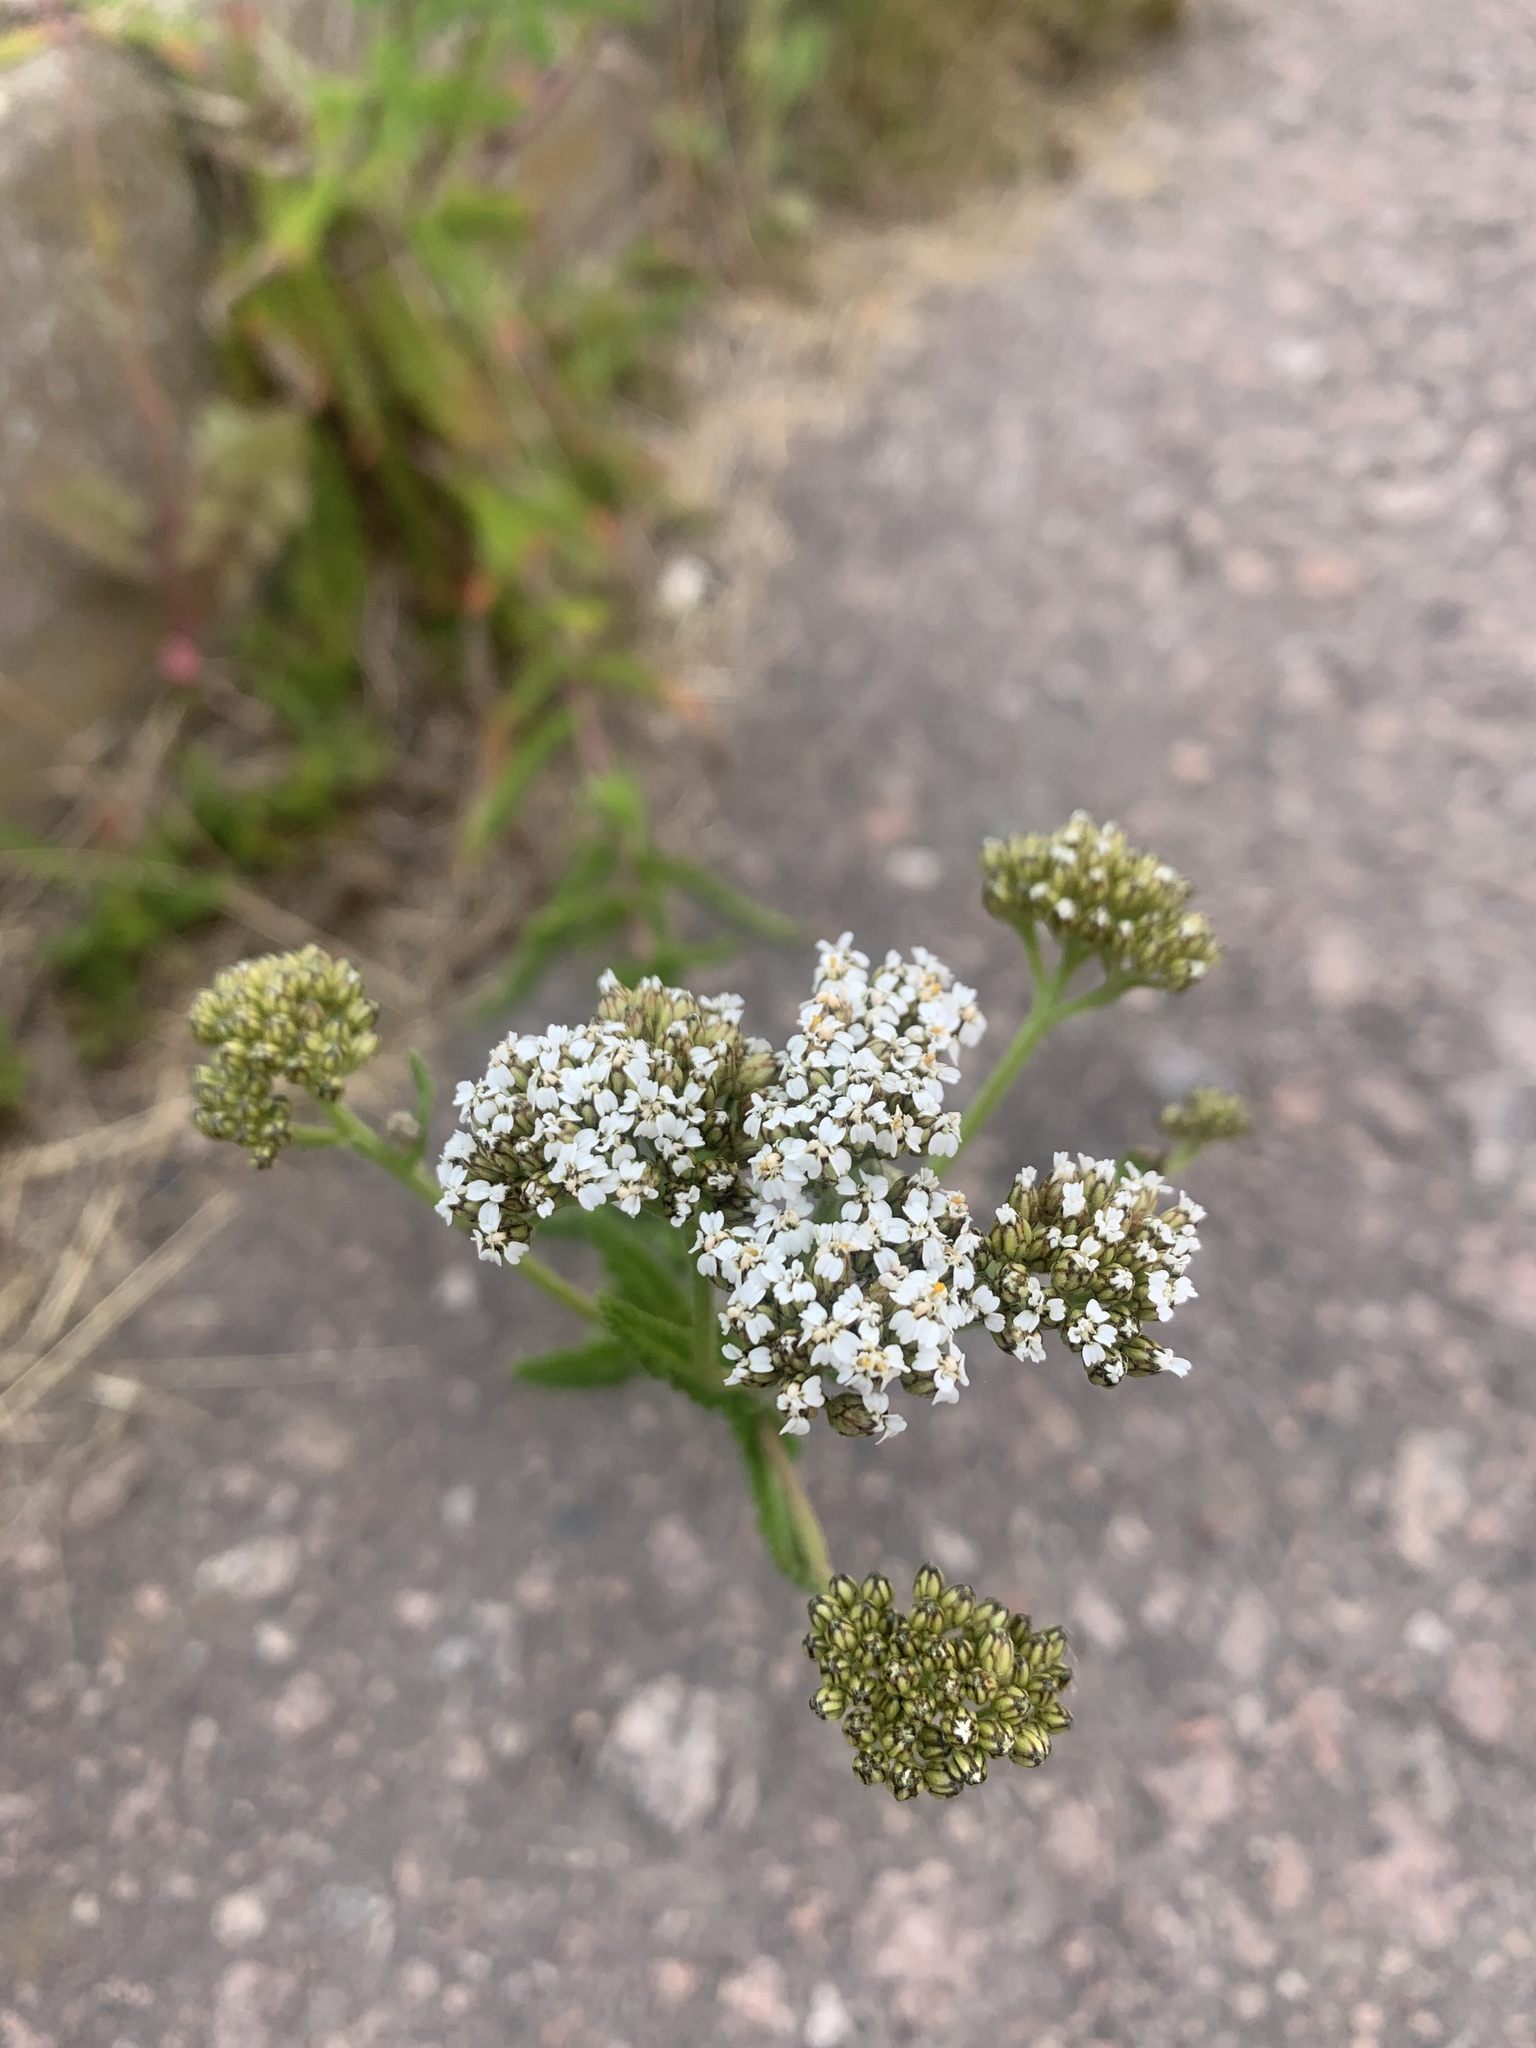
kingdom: Plantae
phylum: Tracheophyta
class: Magnoliopsida
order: Asterales
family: Asteraceae
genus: Achillea
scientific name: Achillea millefolium
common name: Yarrow
